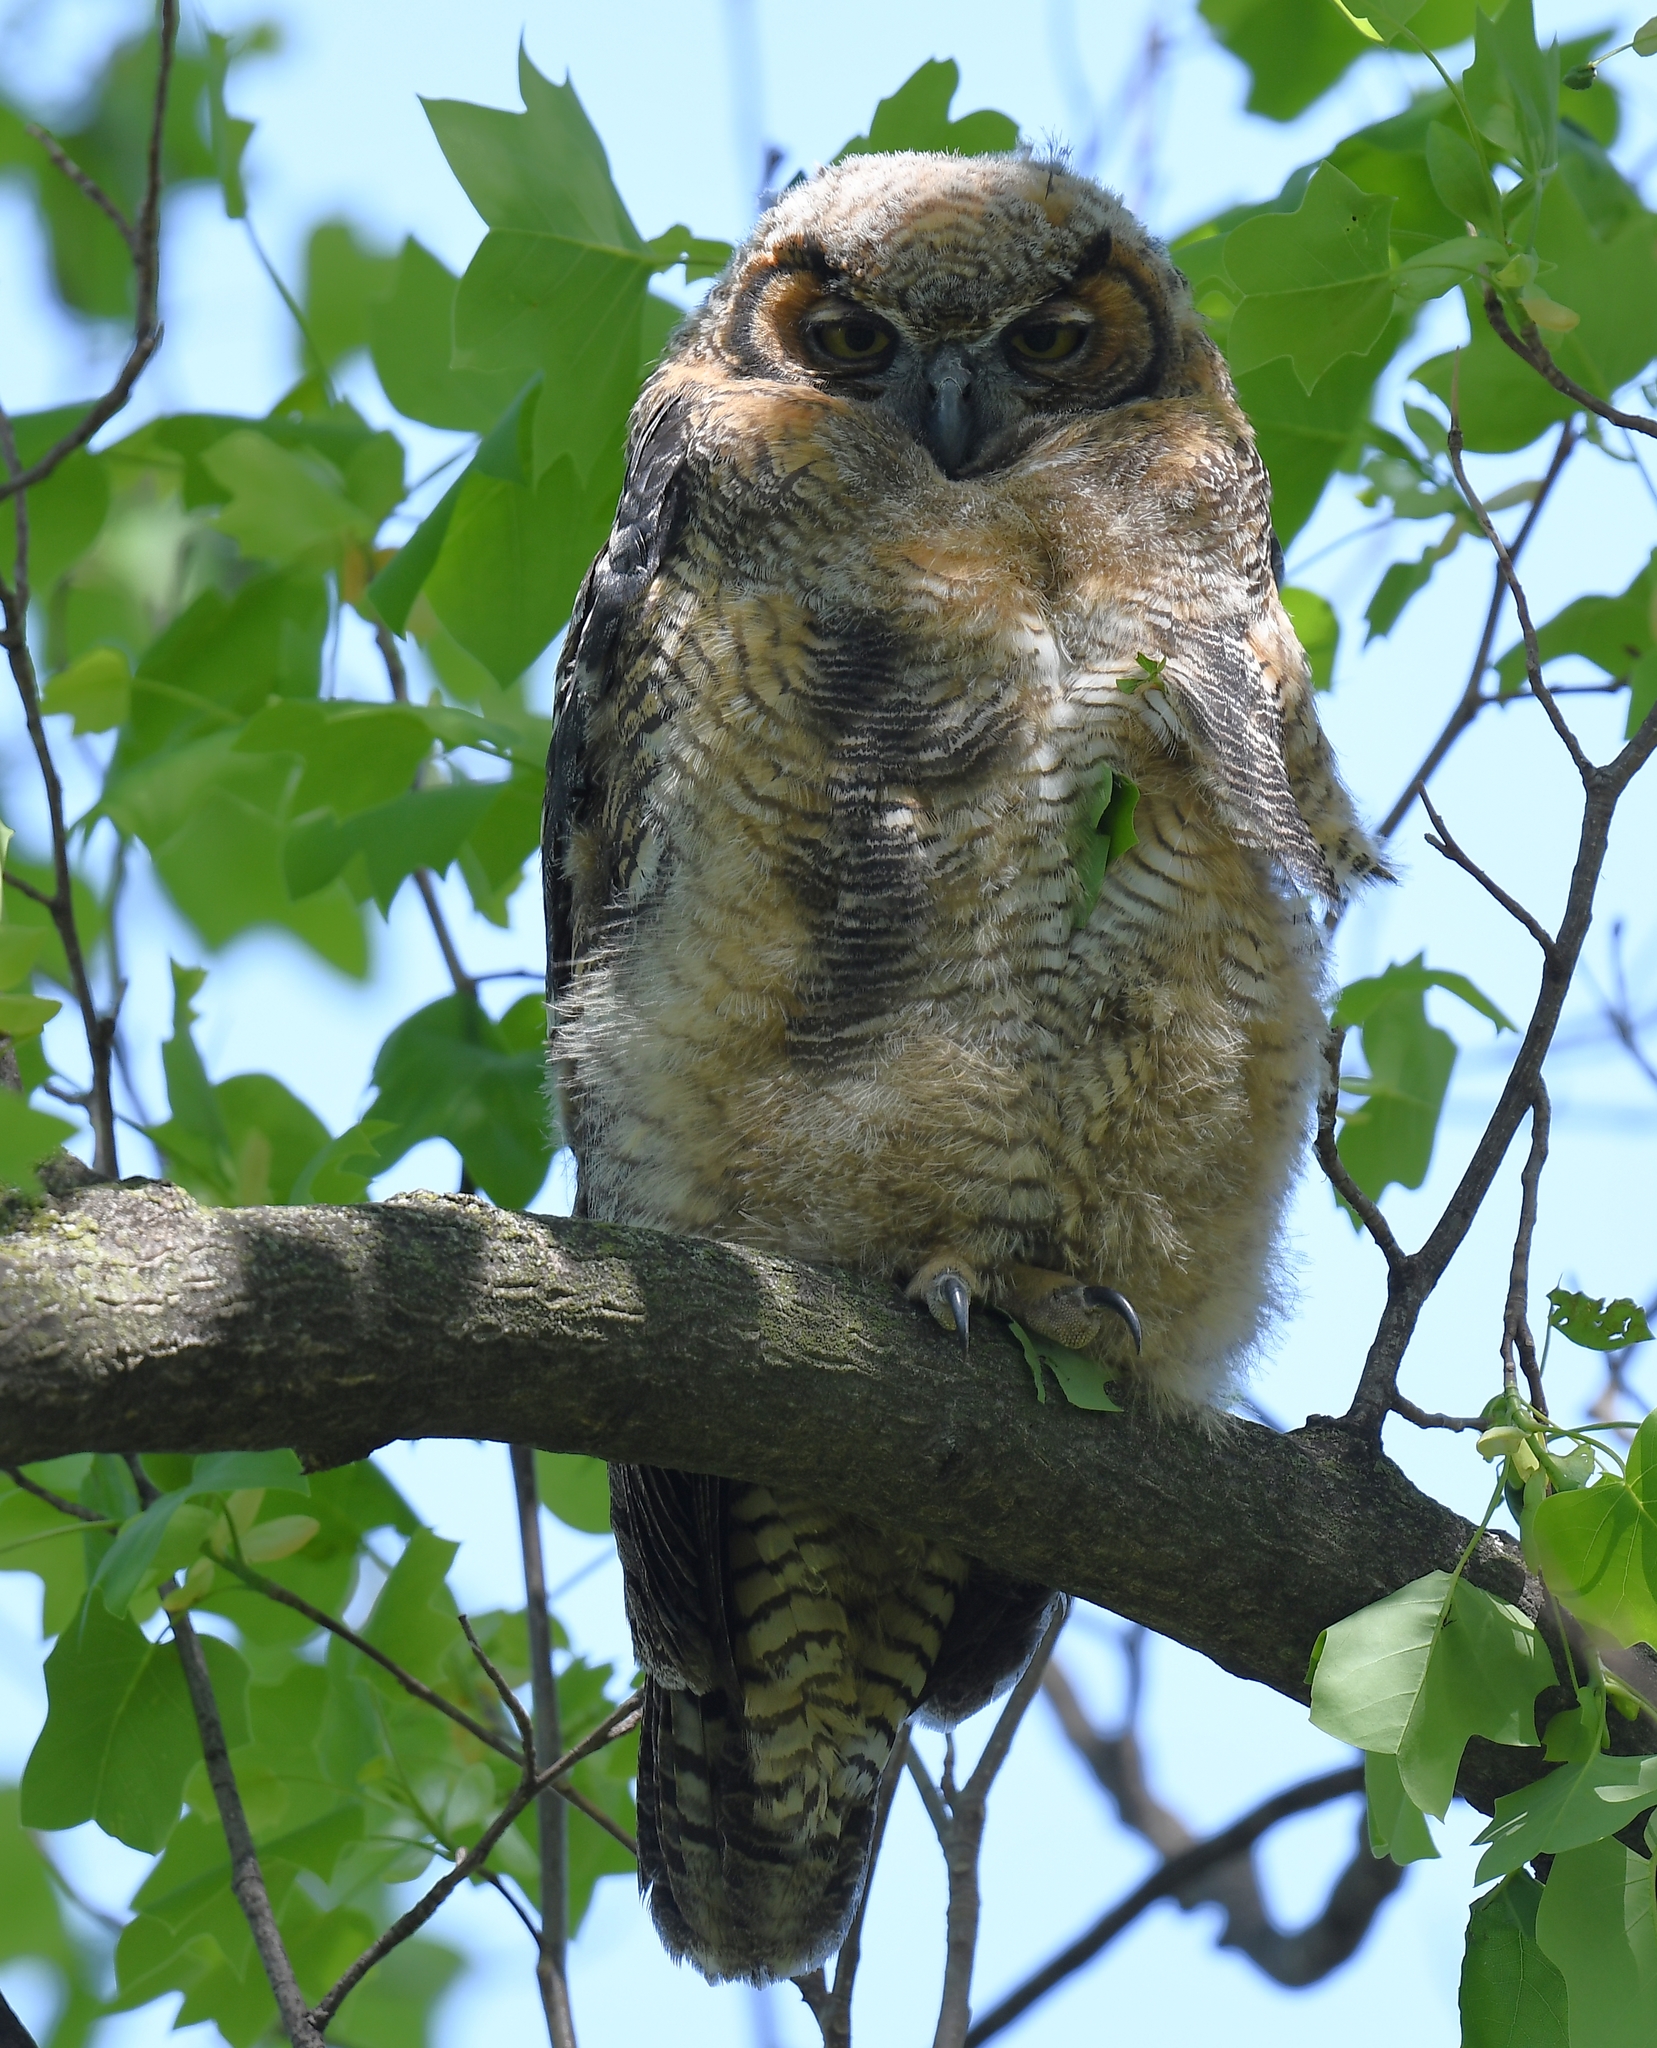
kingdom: Animalia
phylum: Chordata
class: Aves
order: Strigiformes
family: Strigidae
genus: Bubo
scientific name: Bubo virginianus
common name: Great horned owl
